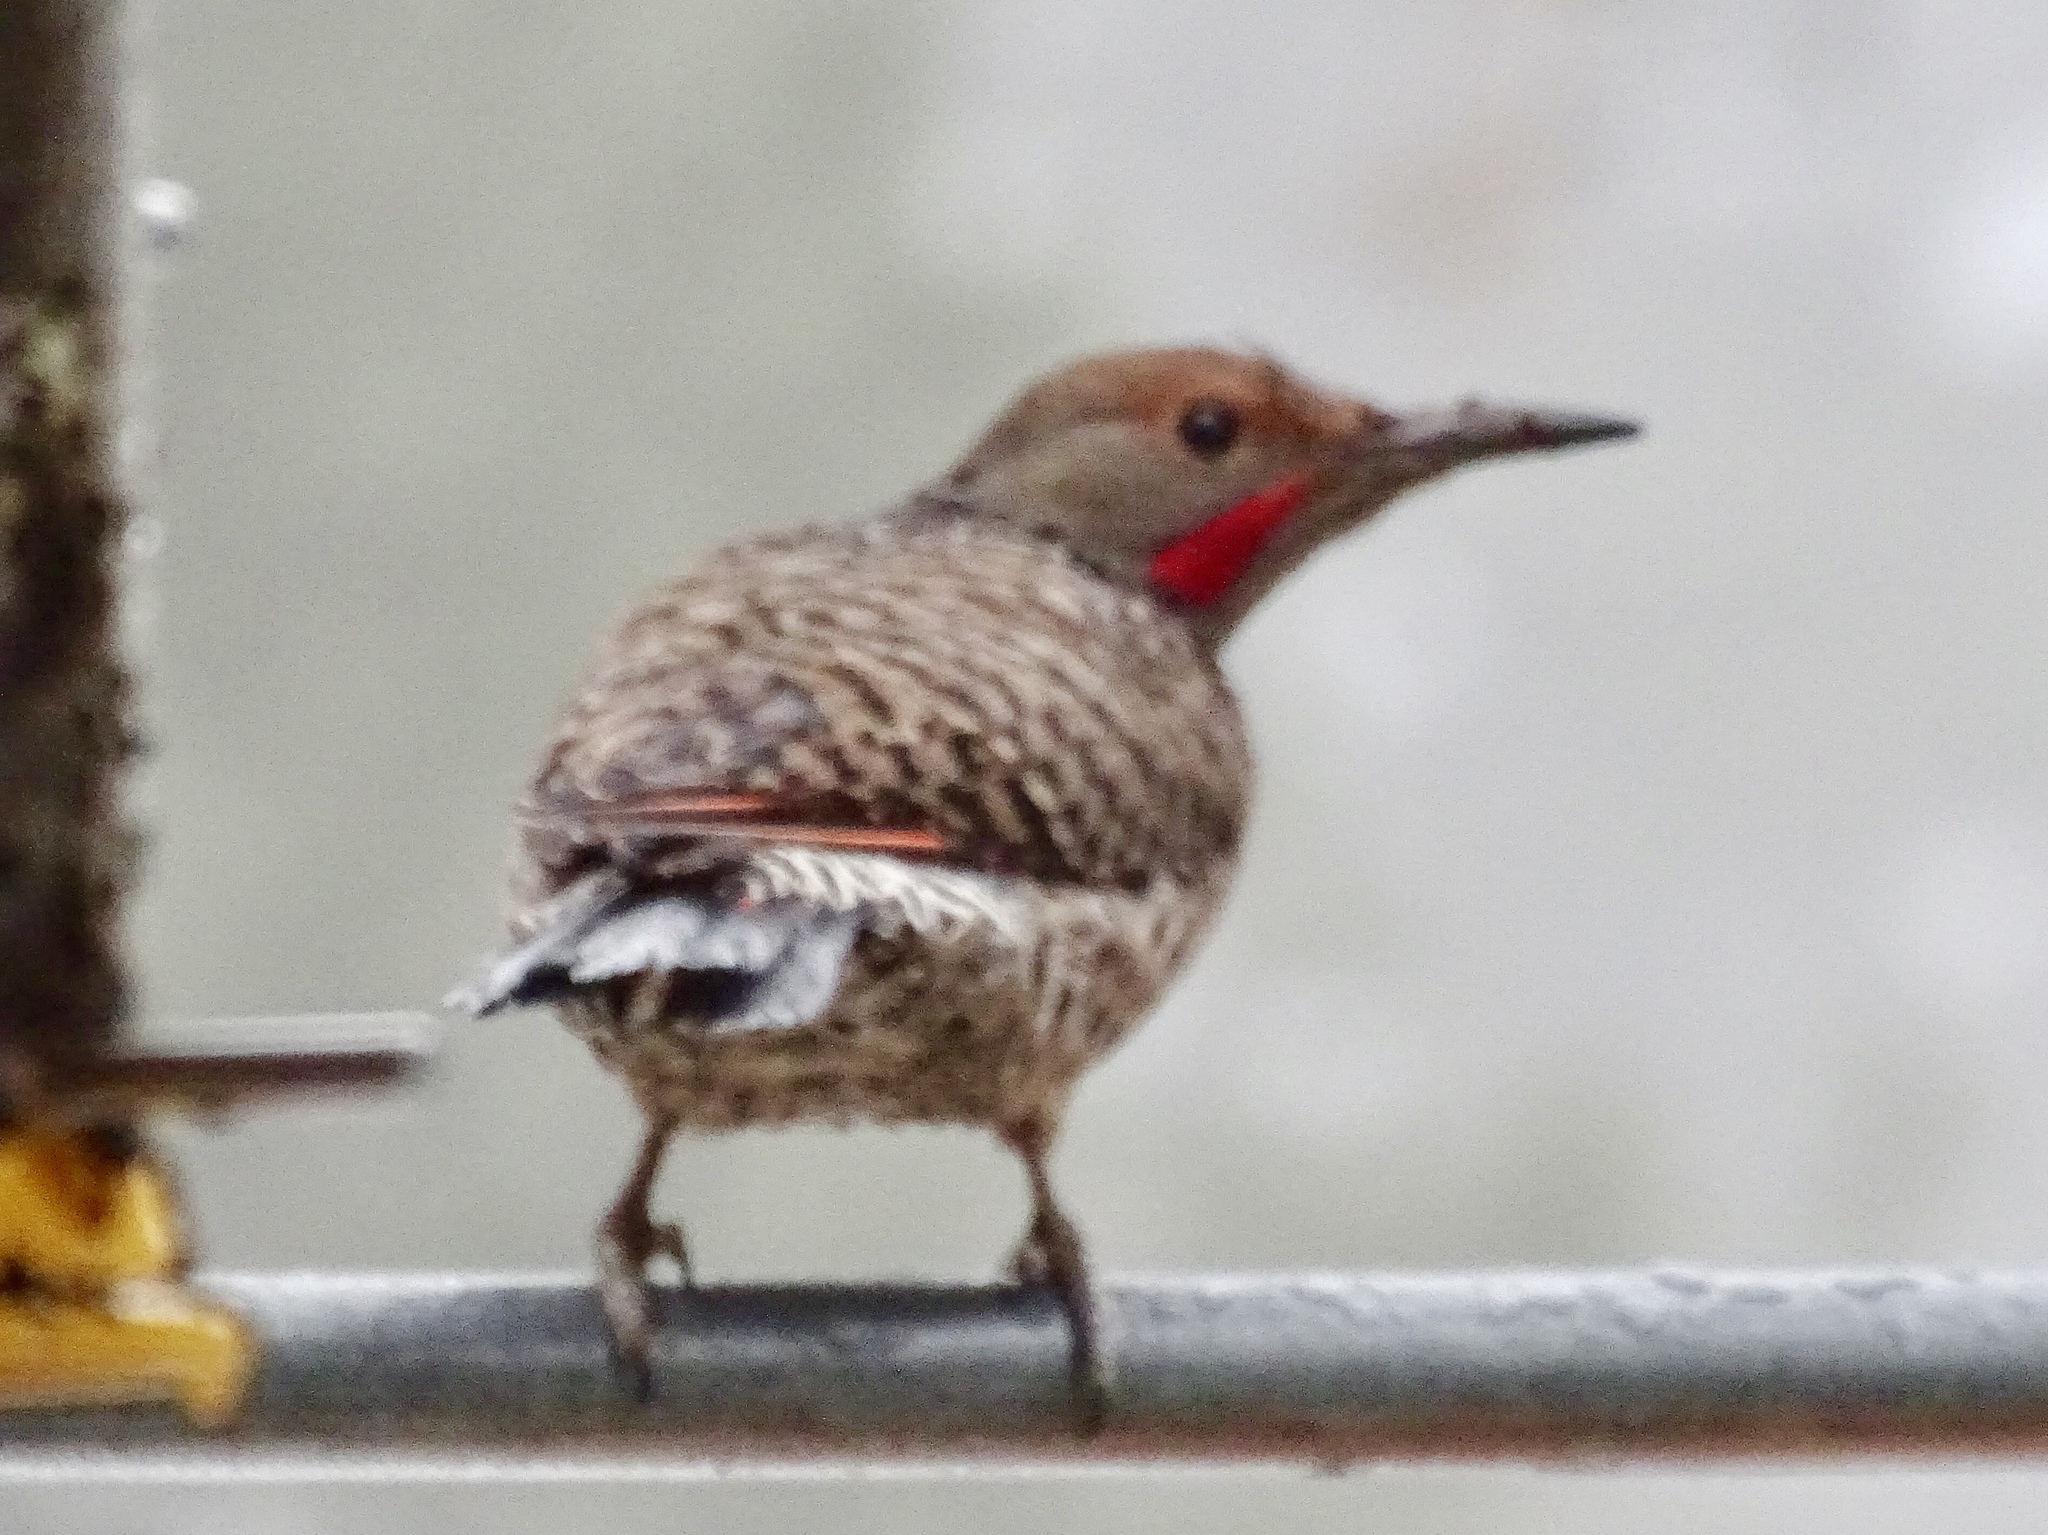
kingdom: Animalia
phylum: Chordata
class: Aves
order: Piciformes
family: Picidae
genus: Colaptes
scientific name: Colaptes auratus
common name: Northern flicker
